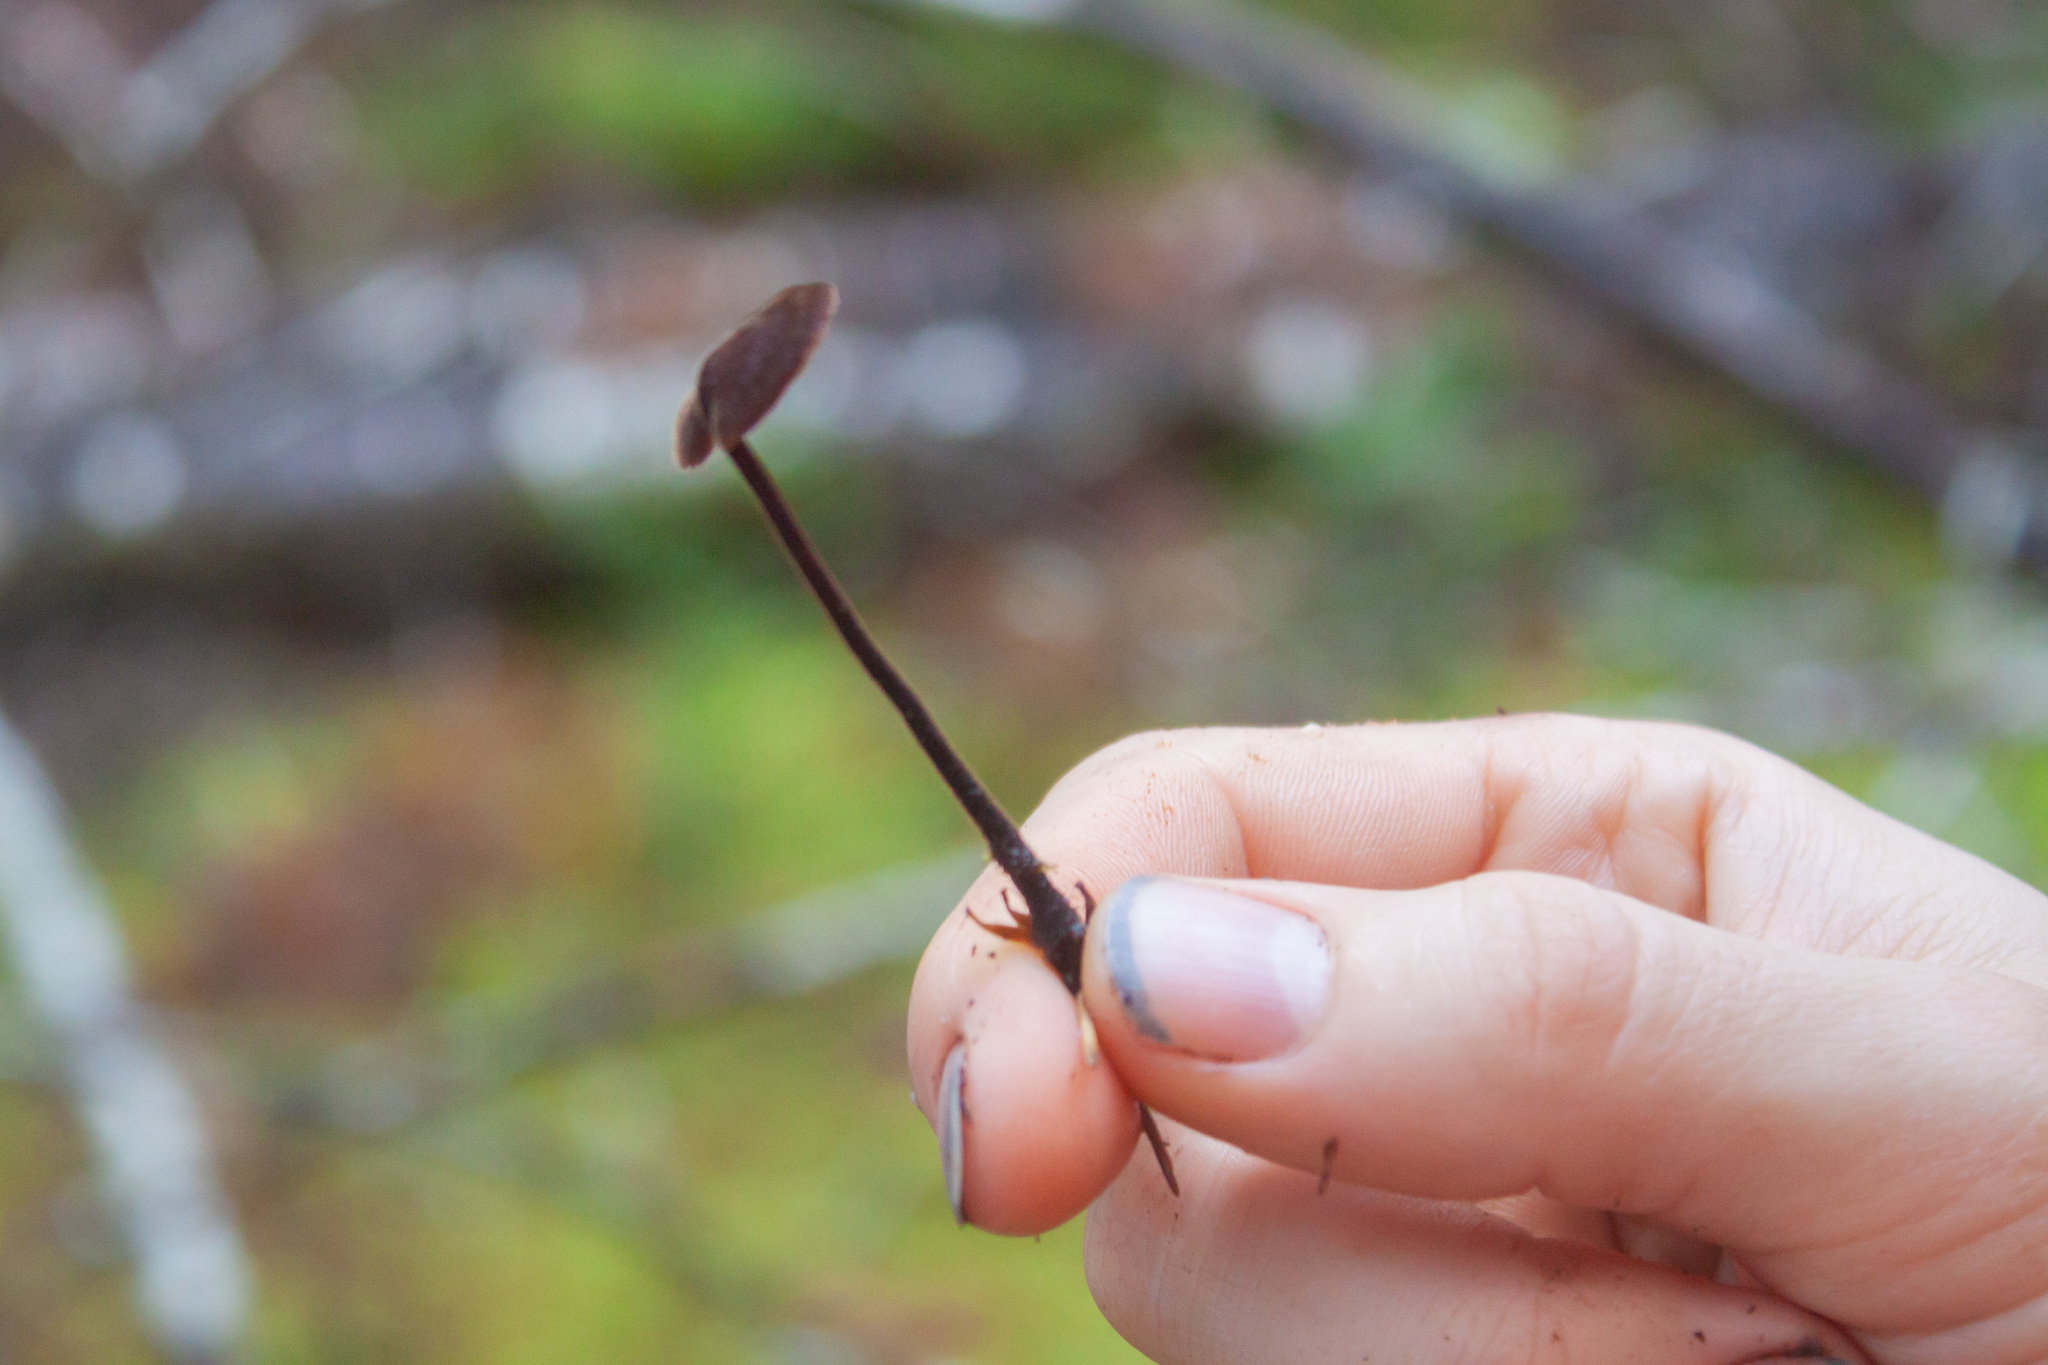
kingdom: Fungi
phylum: Basidiomycota
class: Agaricomycetes
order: Russulales
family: Auriscalpiaceae
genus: Auriscalpium
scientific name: Auriscalpium vulgare
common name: Earpick fungus
